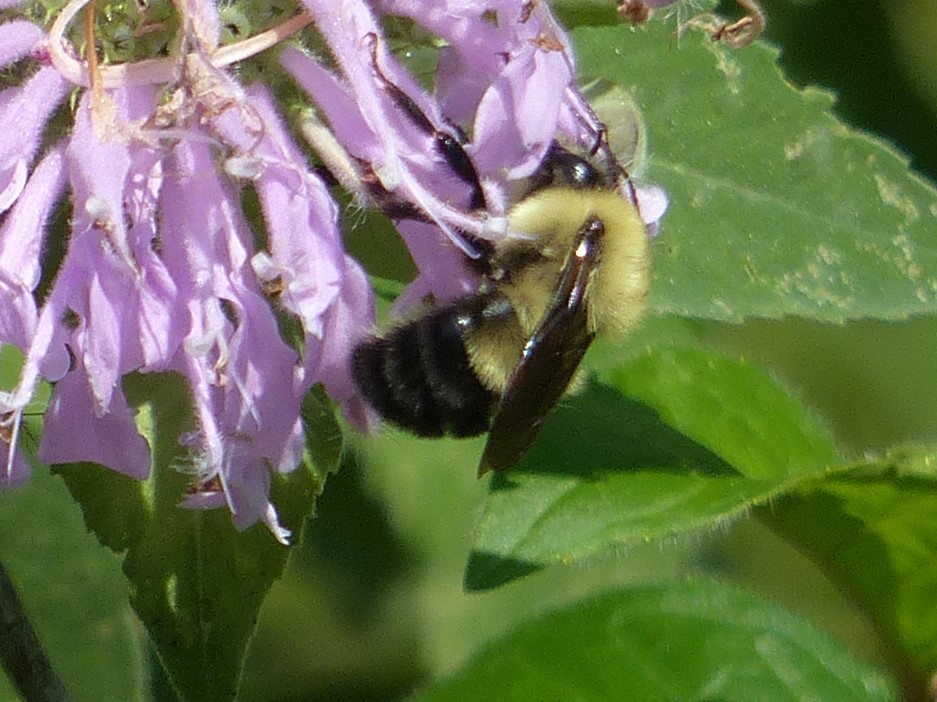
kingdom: Animalia
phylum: Arthropoda
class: Insecta
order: Hymenoptera
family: Apidae
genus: Bombus
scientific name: Bombus bimaculatus
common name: Two-spotted bumble bee
